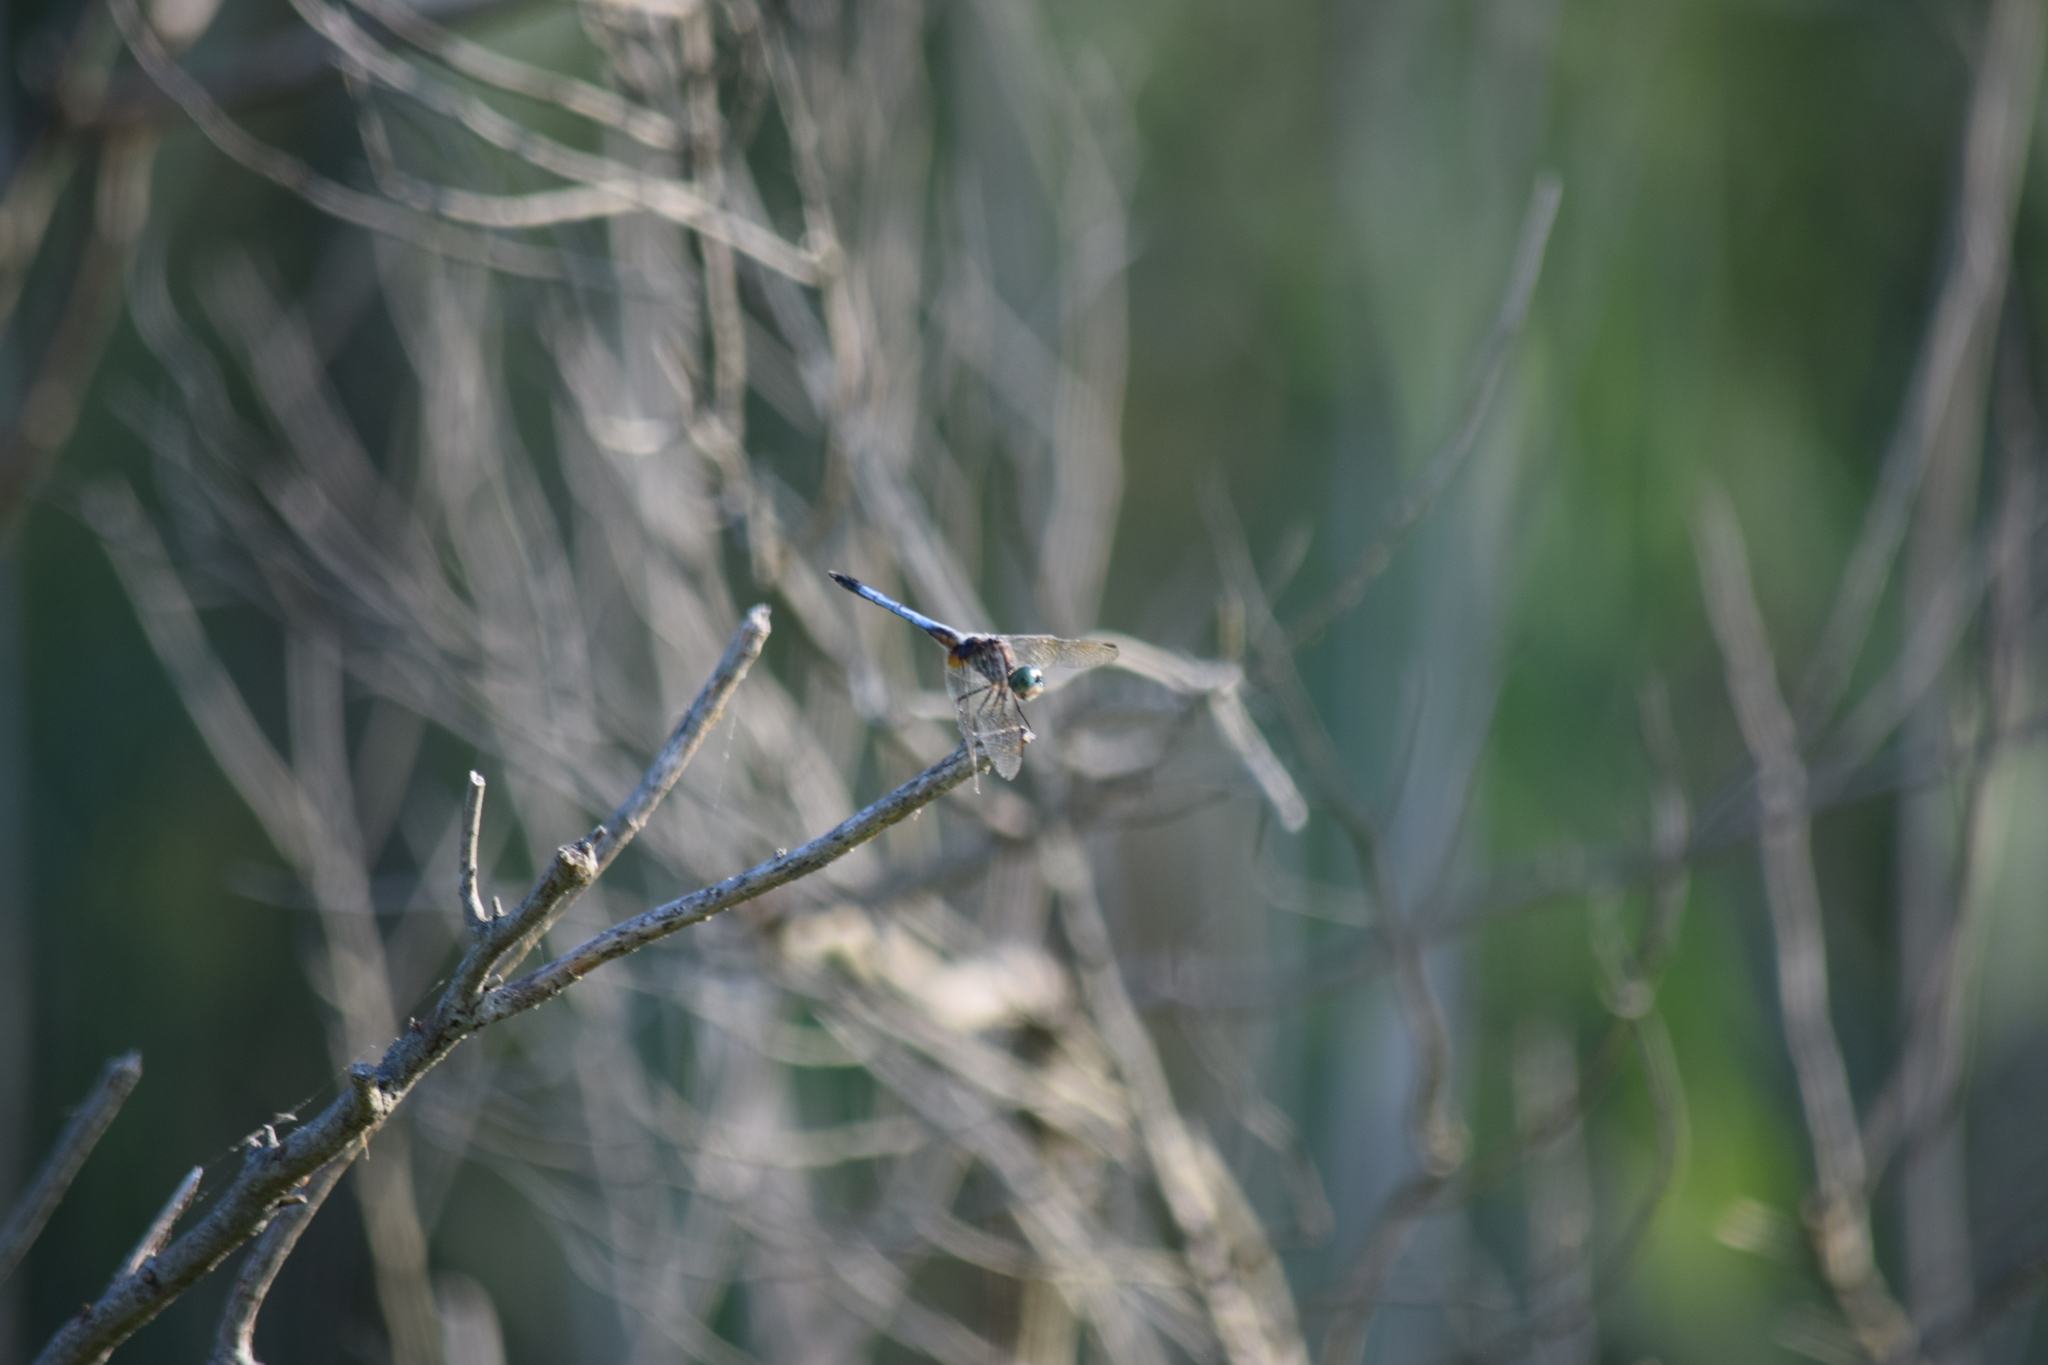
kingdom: Animalia
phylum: Arthropoda
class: Insecta
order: Odonata
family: Libellulidae
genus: Pachydiplax
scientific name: Pachydiplax longipennis
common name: Blue dasher
